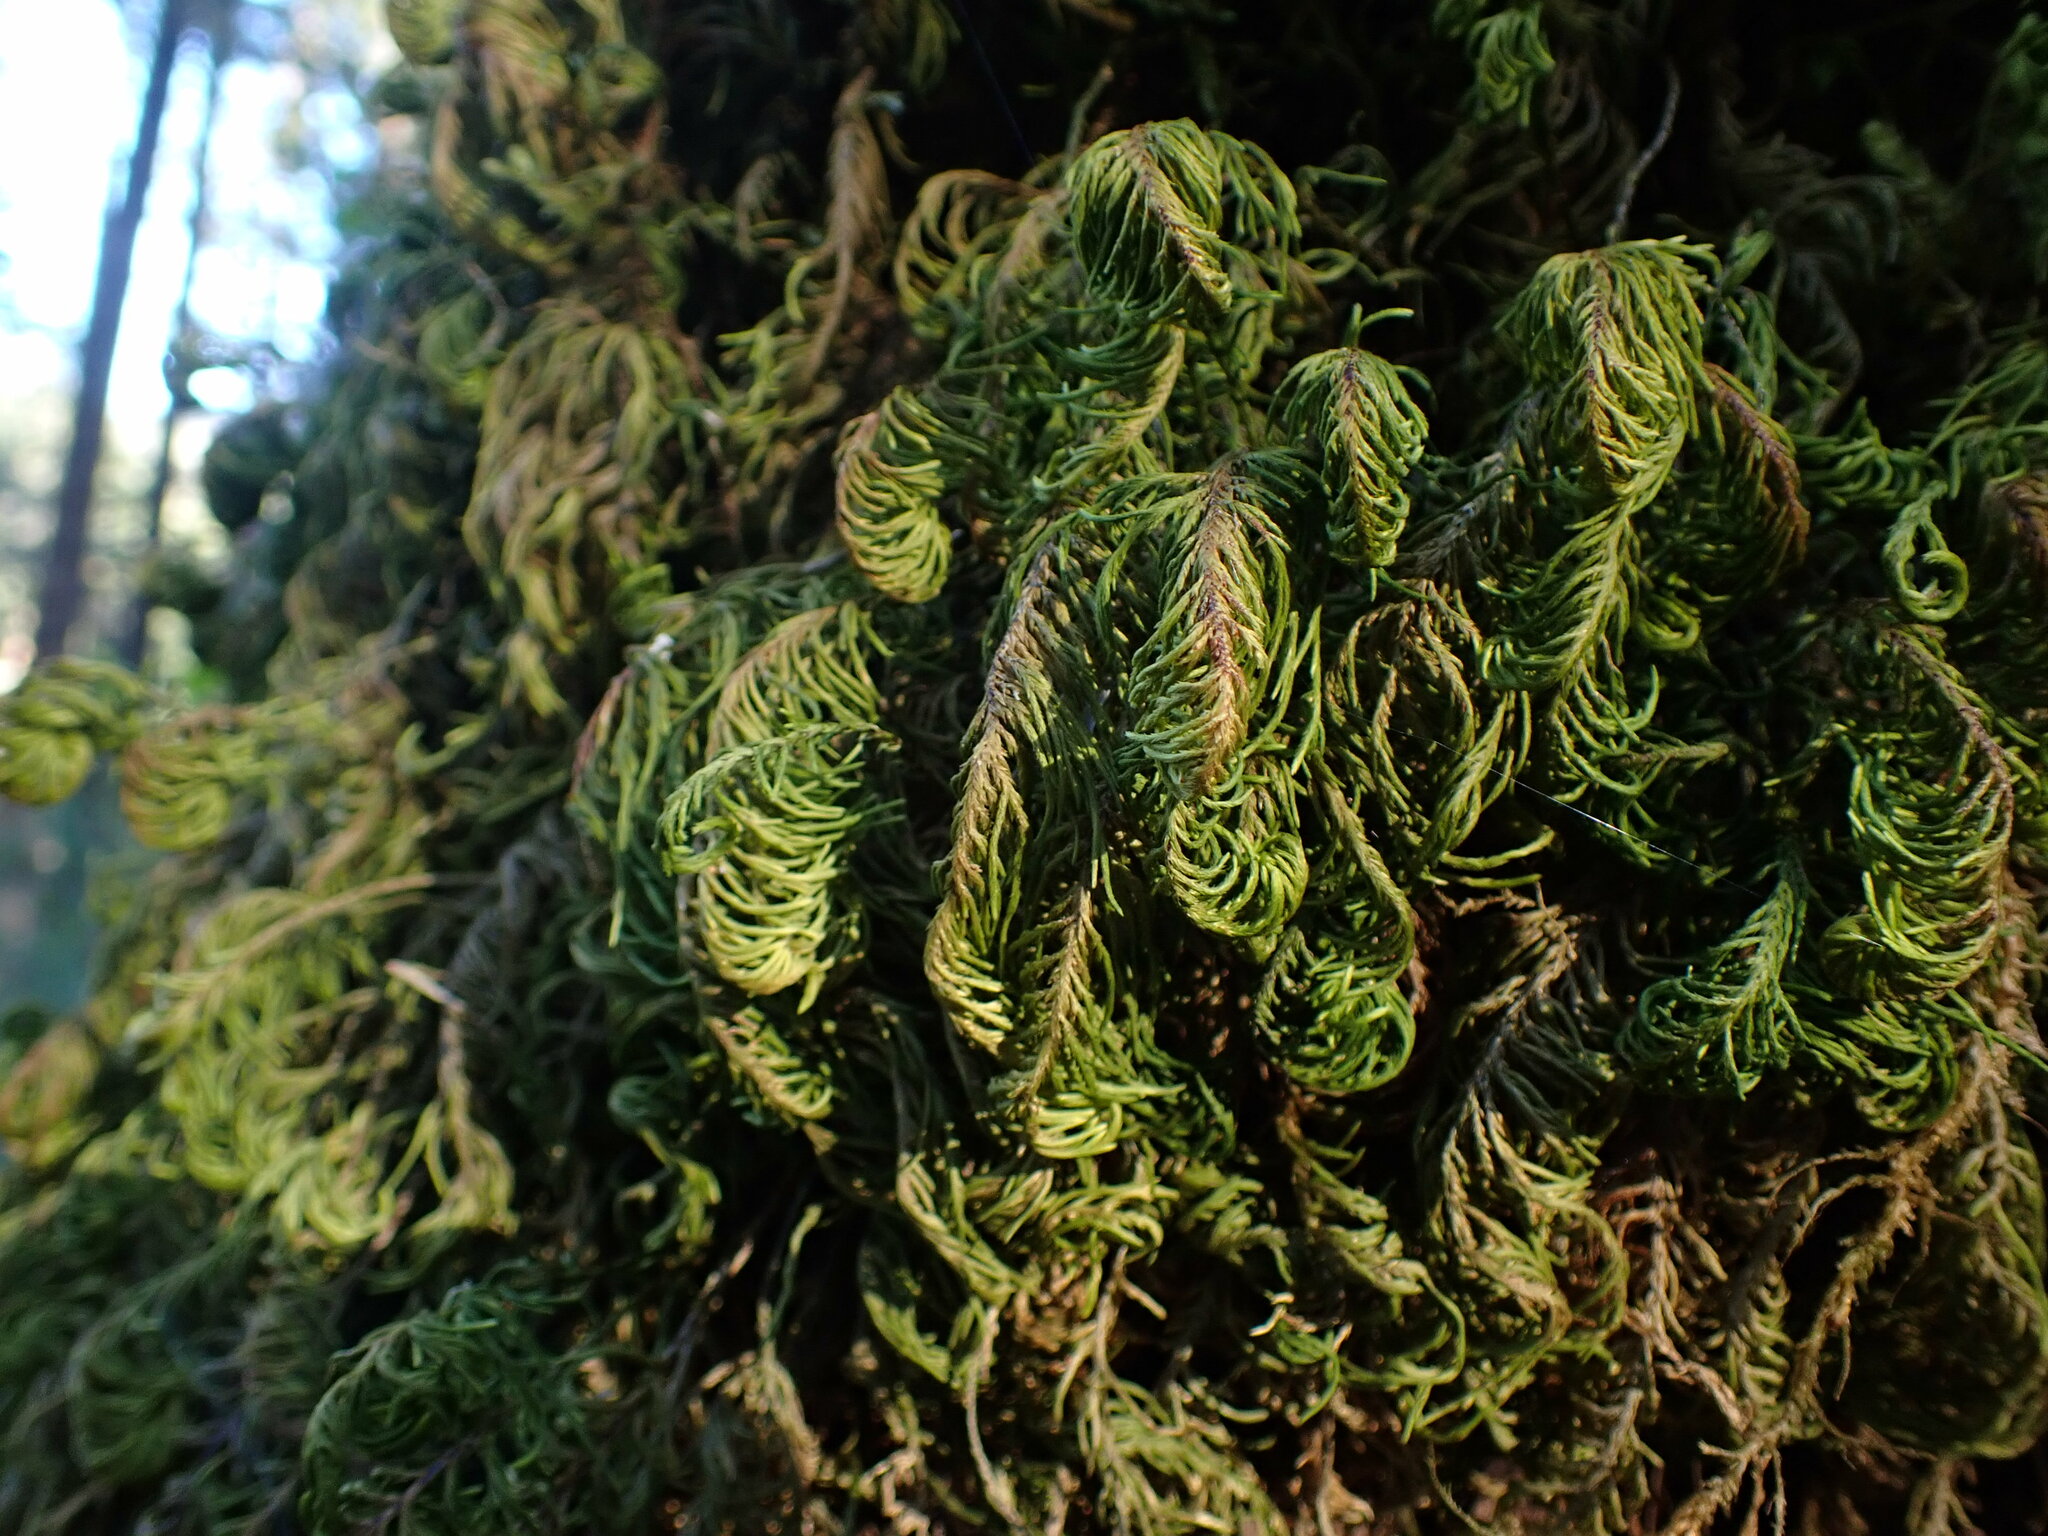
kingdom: Plantae
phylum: Bryophyta
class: Bryopsida
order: Hypnales
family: Cryphaeaceae
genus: Dendroalsia
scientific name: Dendroalsia abietina
